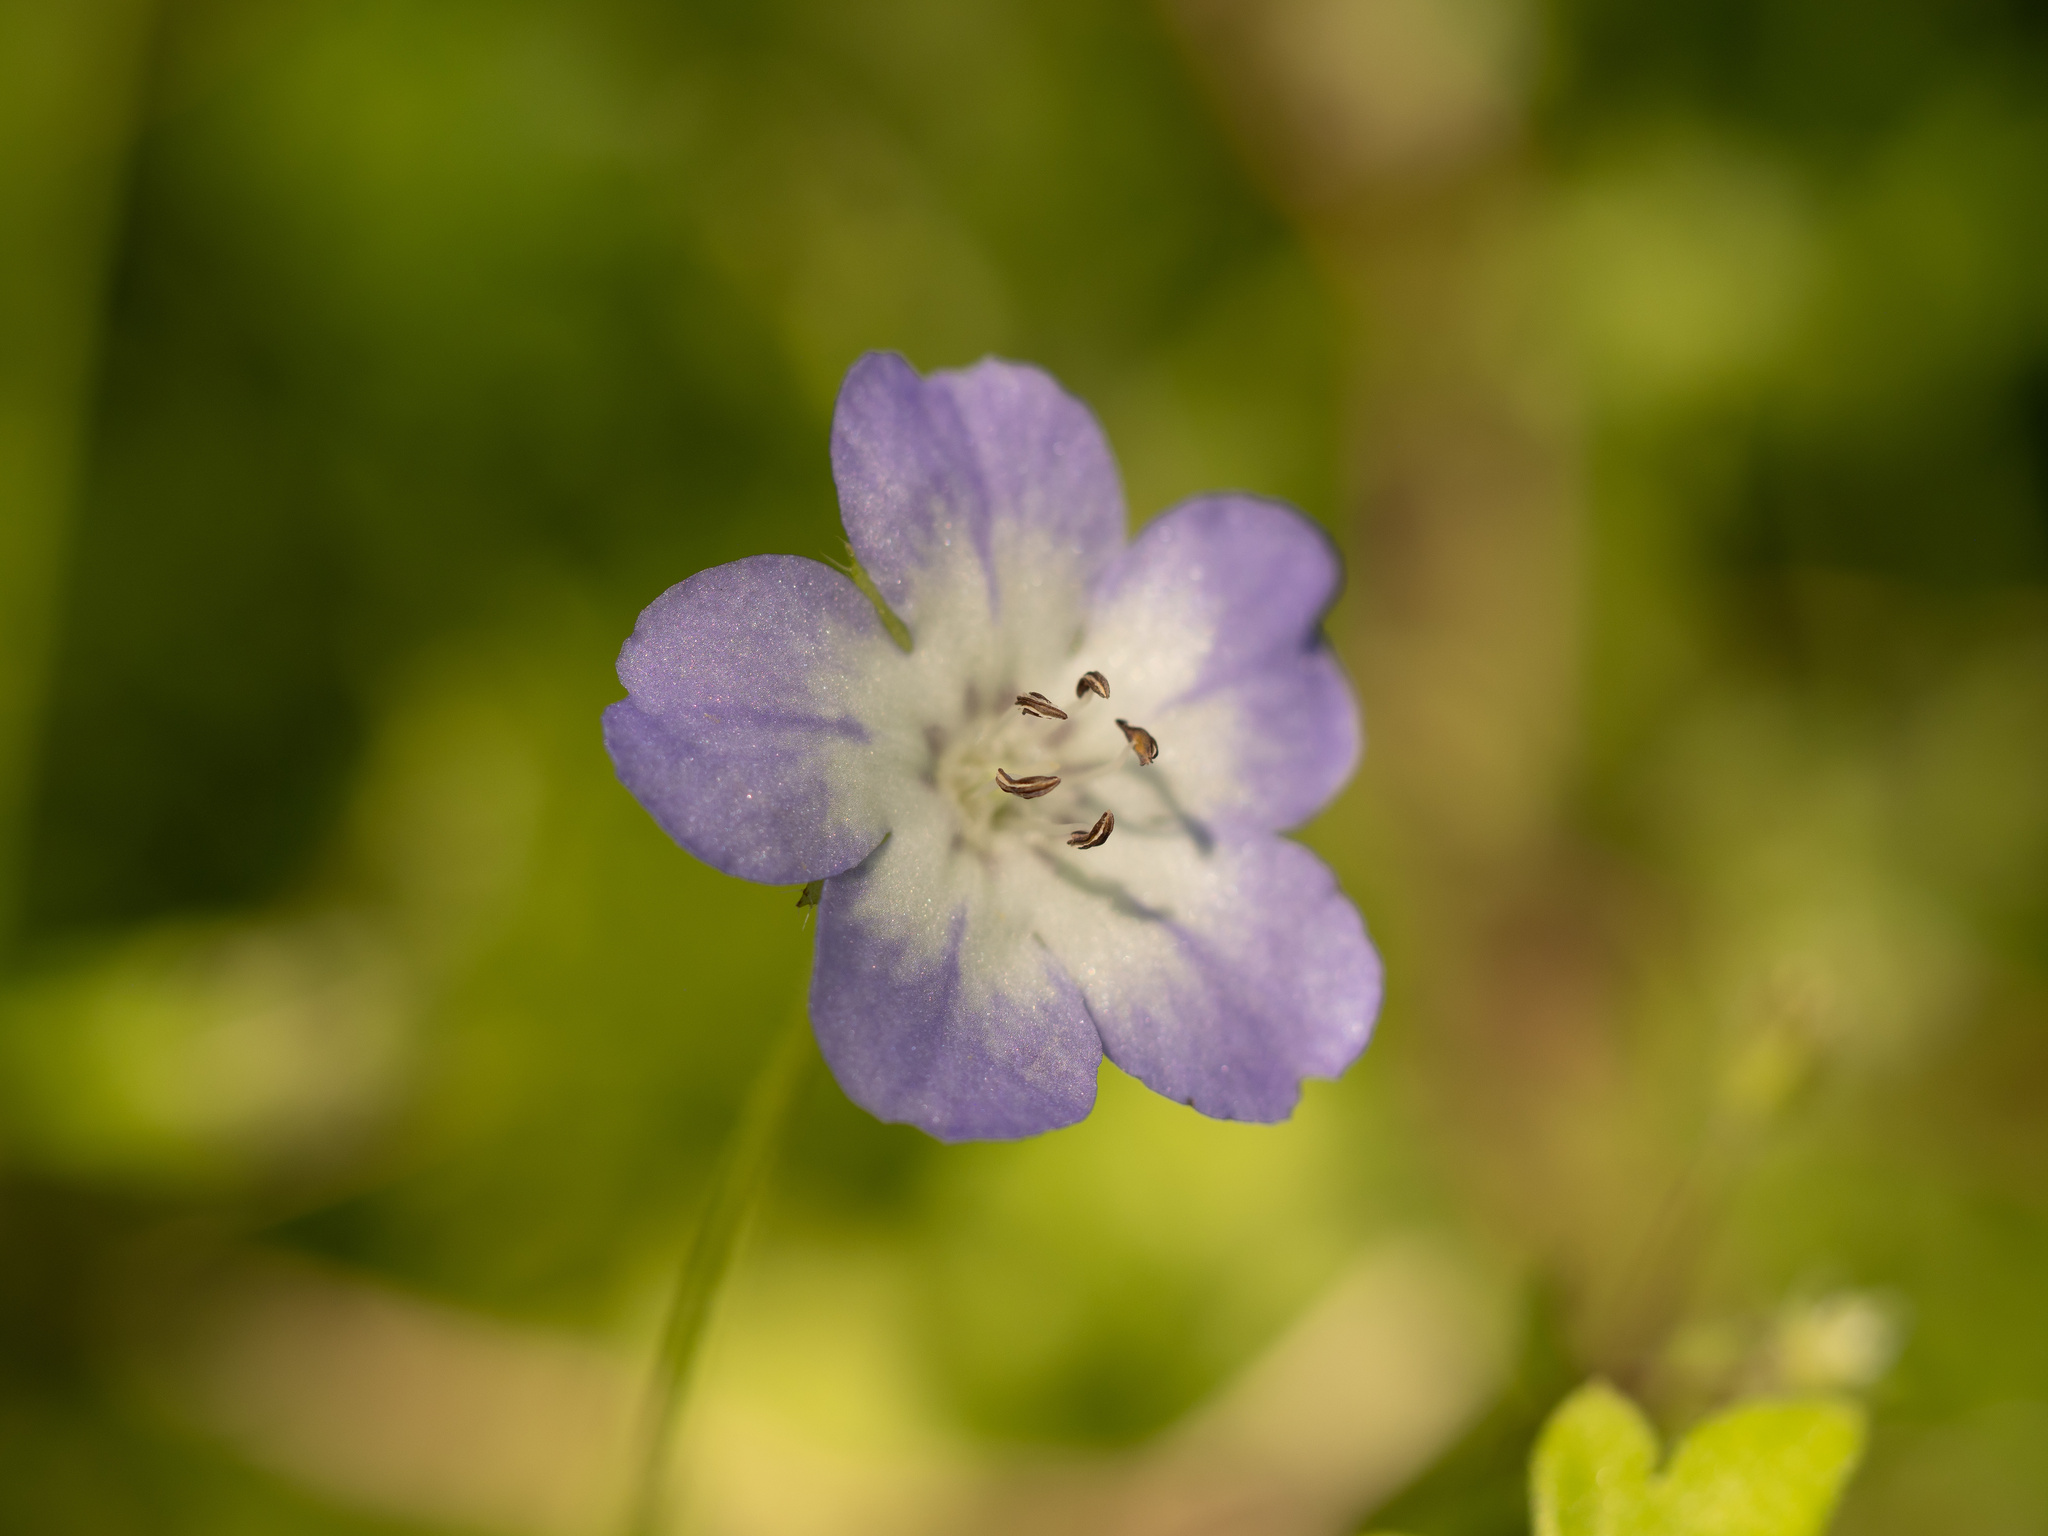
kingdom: Plantae
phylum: Tracheophyta
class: Magnoliopsida
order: Boraginales
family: Hydrophyllaceae
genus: Nemophila
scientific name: Nemophila phacelioides
